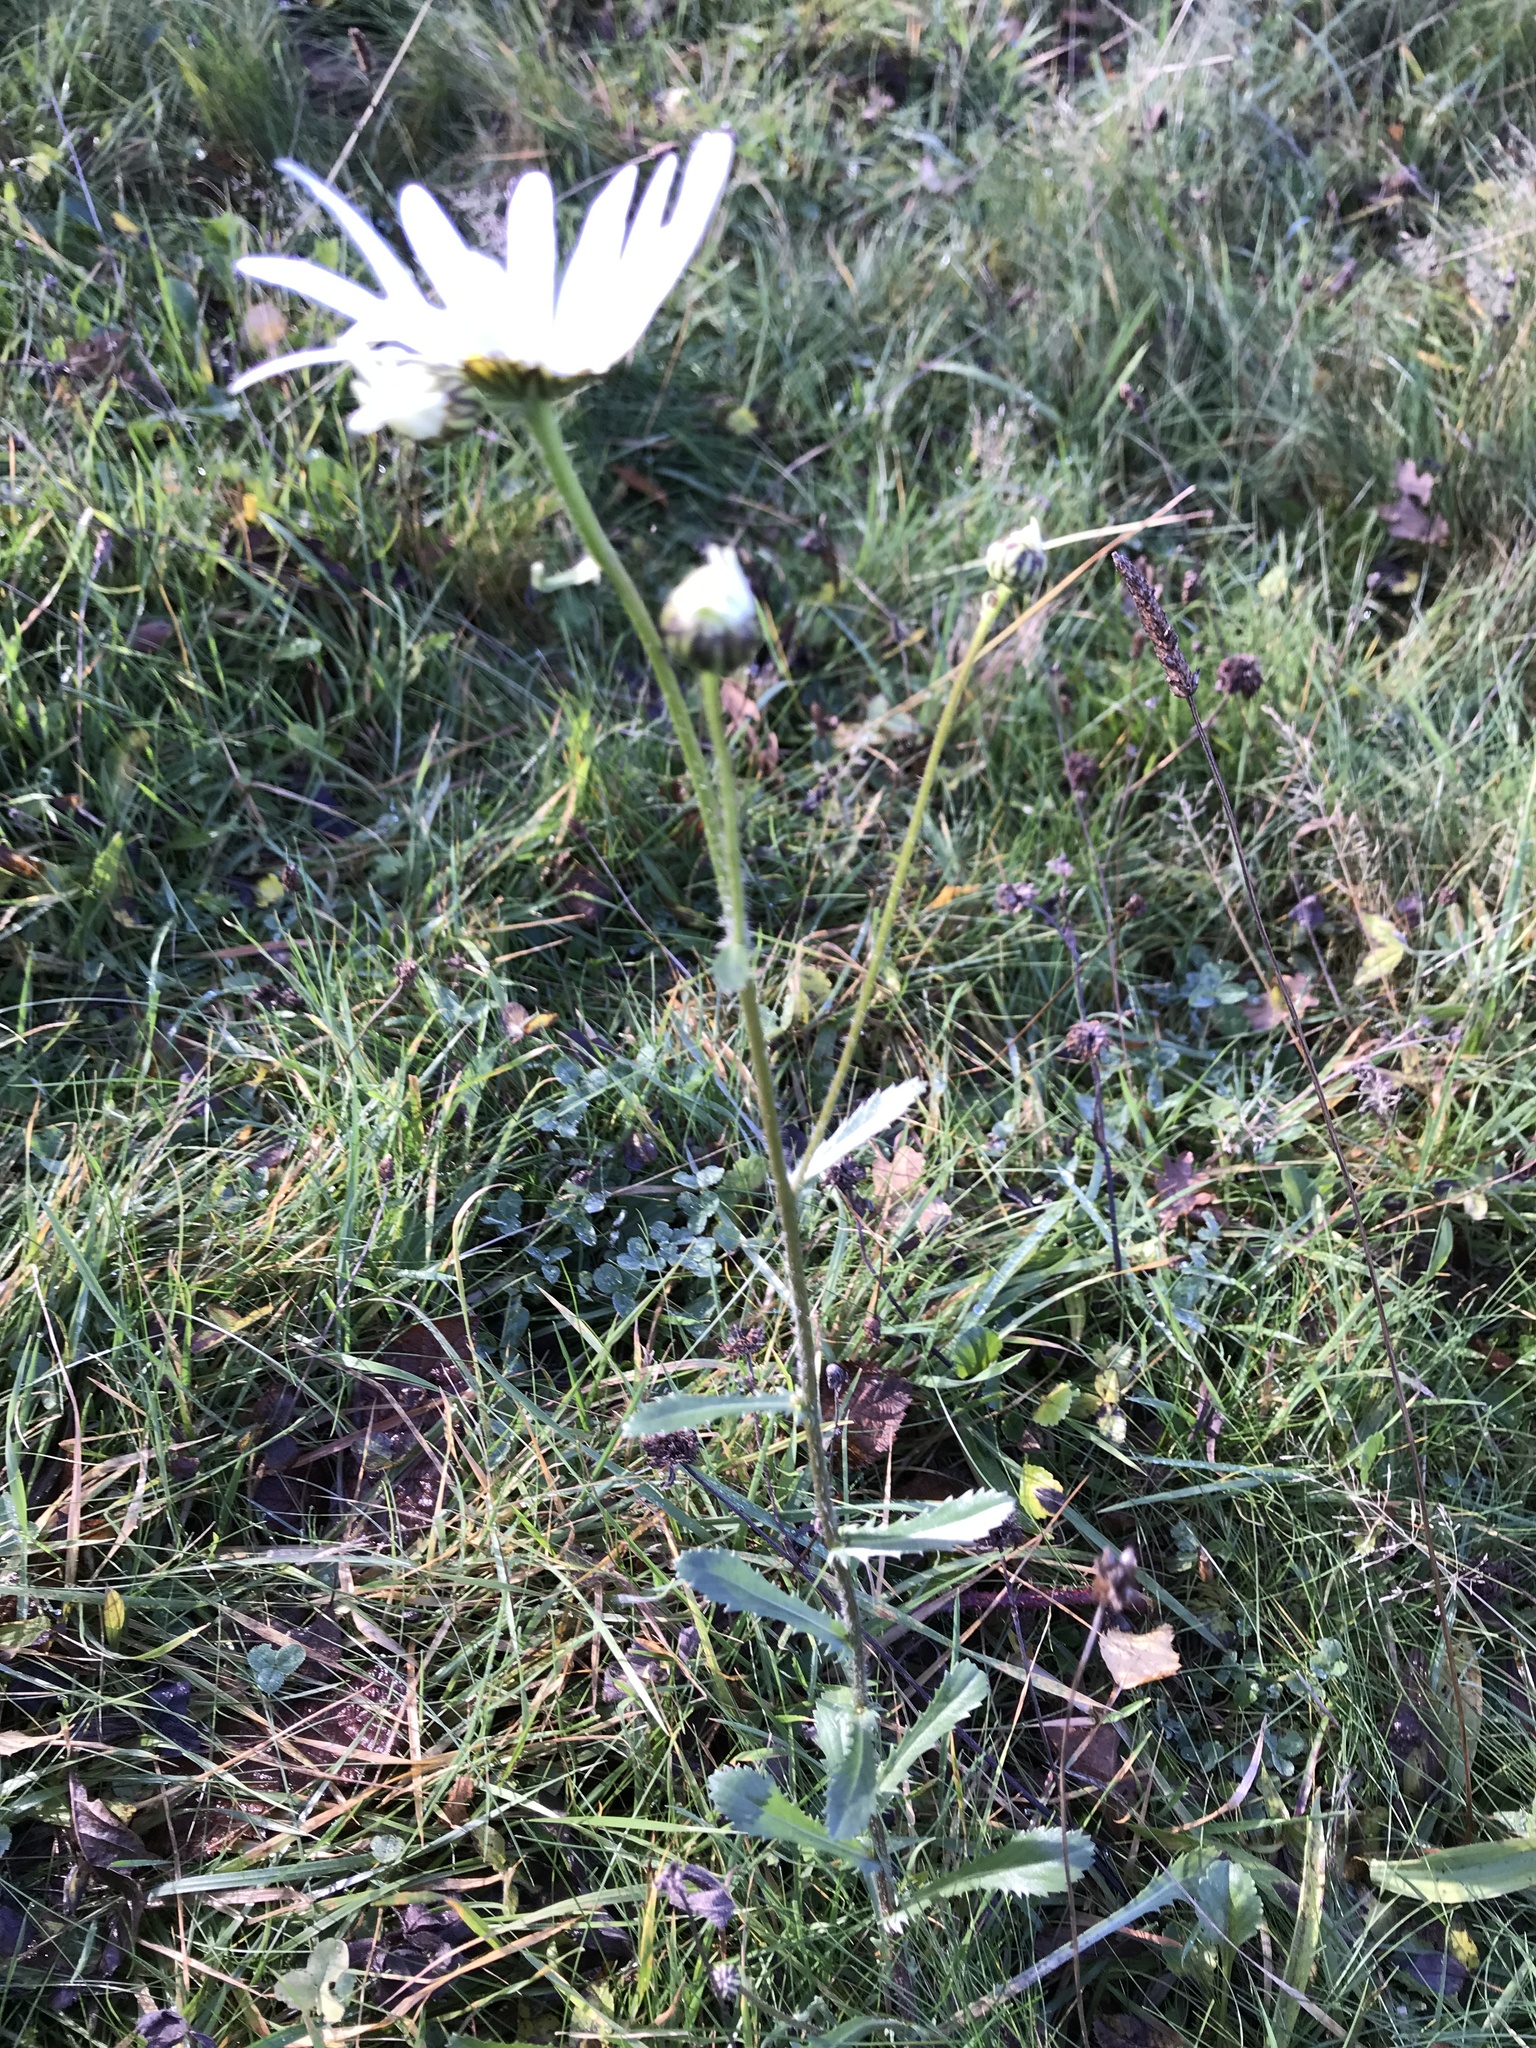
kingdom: Plantae
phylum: Tracheophyta
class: Magnoliopsida
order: Asterales
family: Asteraceae
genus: Leucanthemum
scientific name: Leucanthemum vulgare
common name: Oxeye daisy
